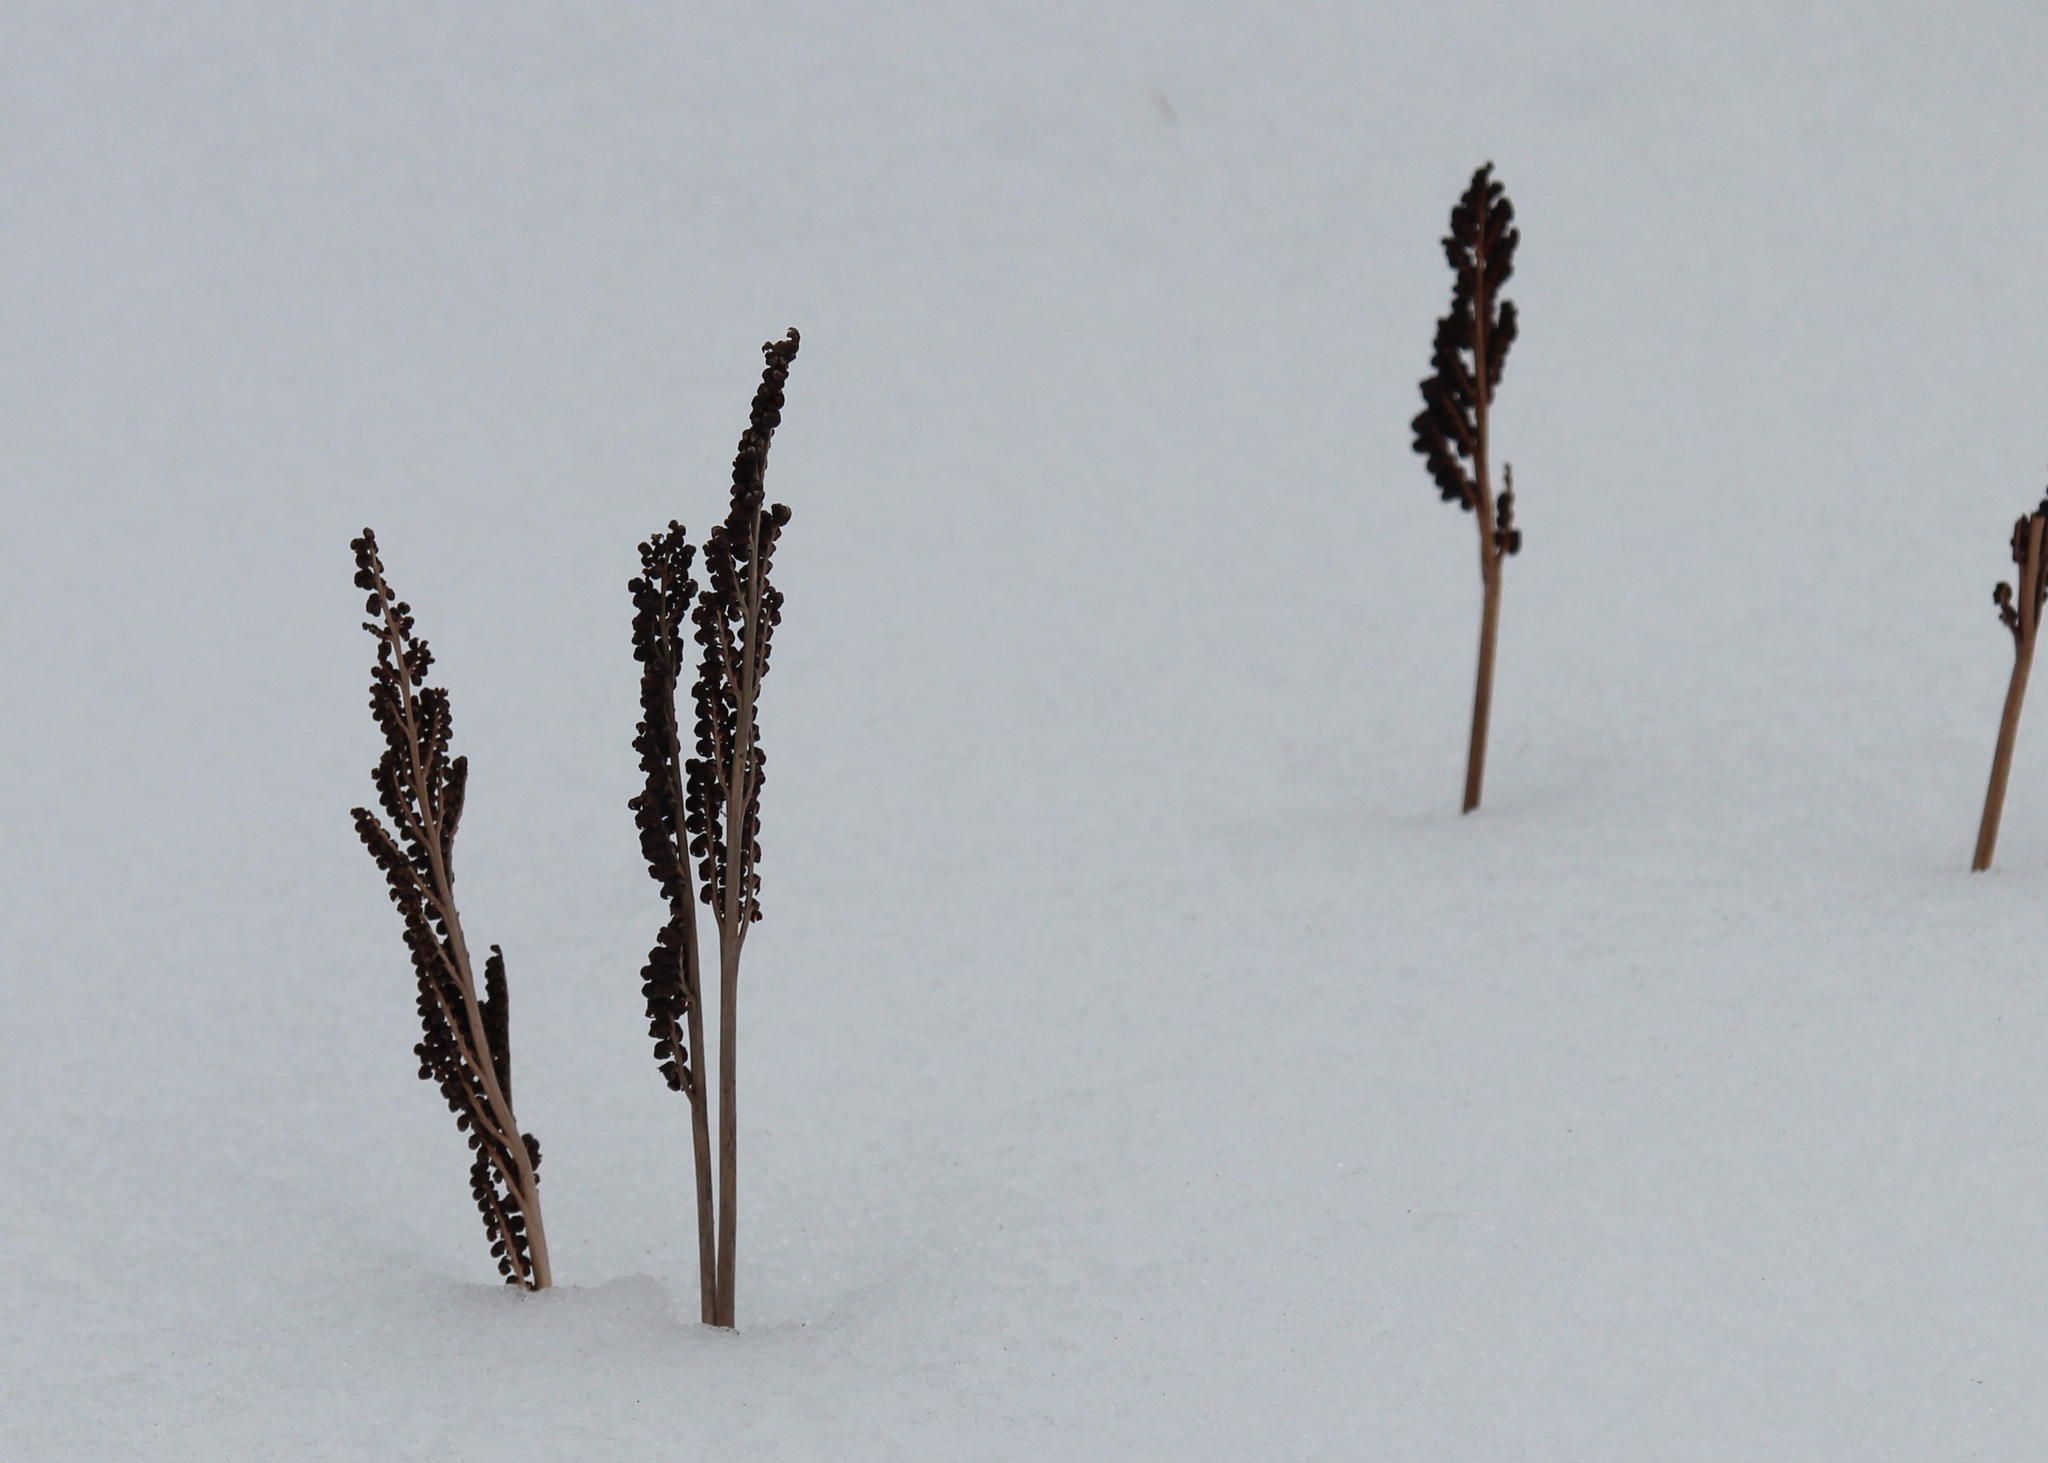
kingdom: Plantae
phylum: Tracheophyta
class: Polypodiopsida
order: Polypodiales
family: Onocleaceae
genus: Onoclea
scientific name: Onoclea sensibilis
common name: Sensitive fern
